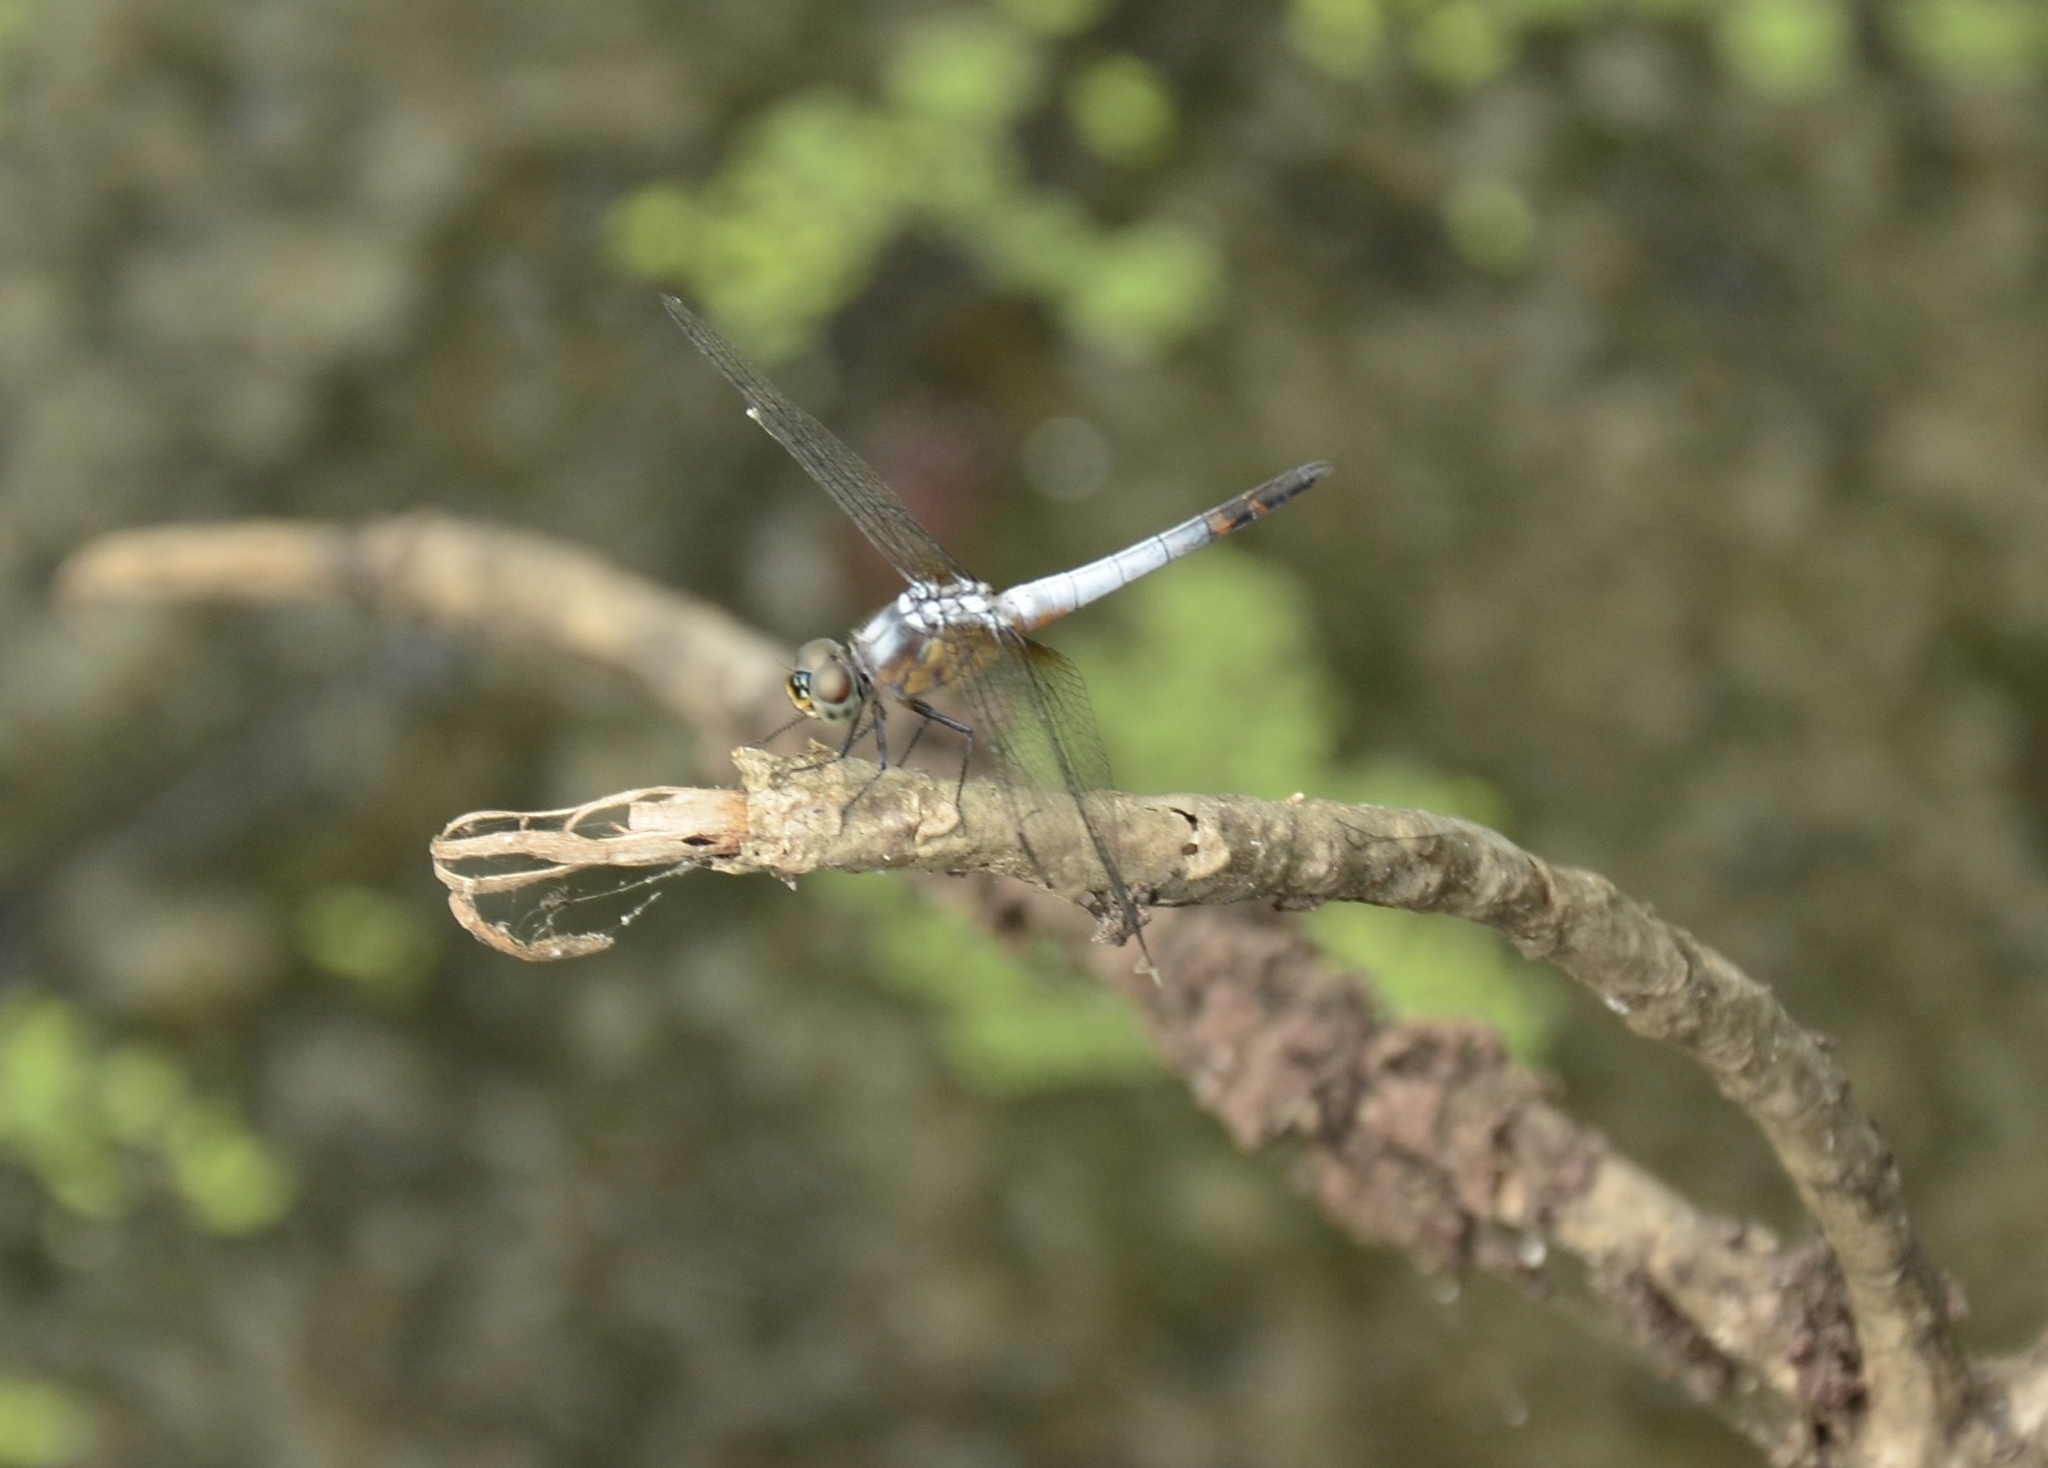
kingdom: Animalia
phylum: Arthropoda
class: Insecta
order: Odonata
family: Libellulidae
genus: Brachydiplax
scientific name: Brachydiplax chalybea
